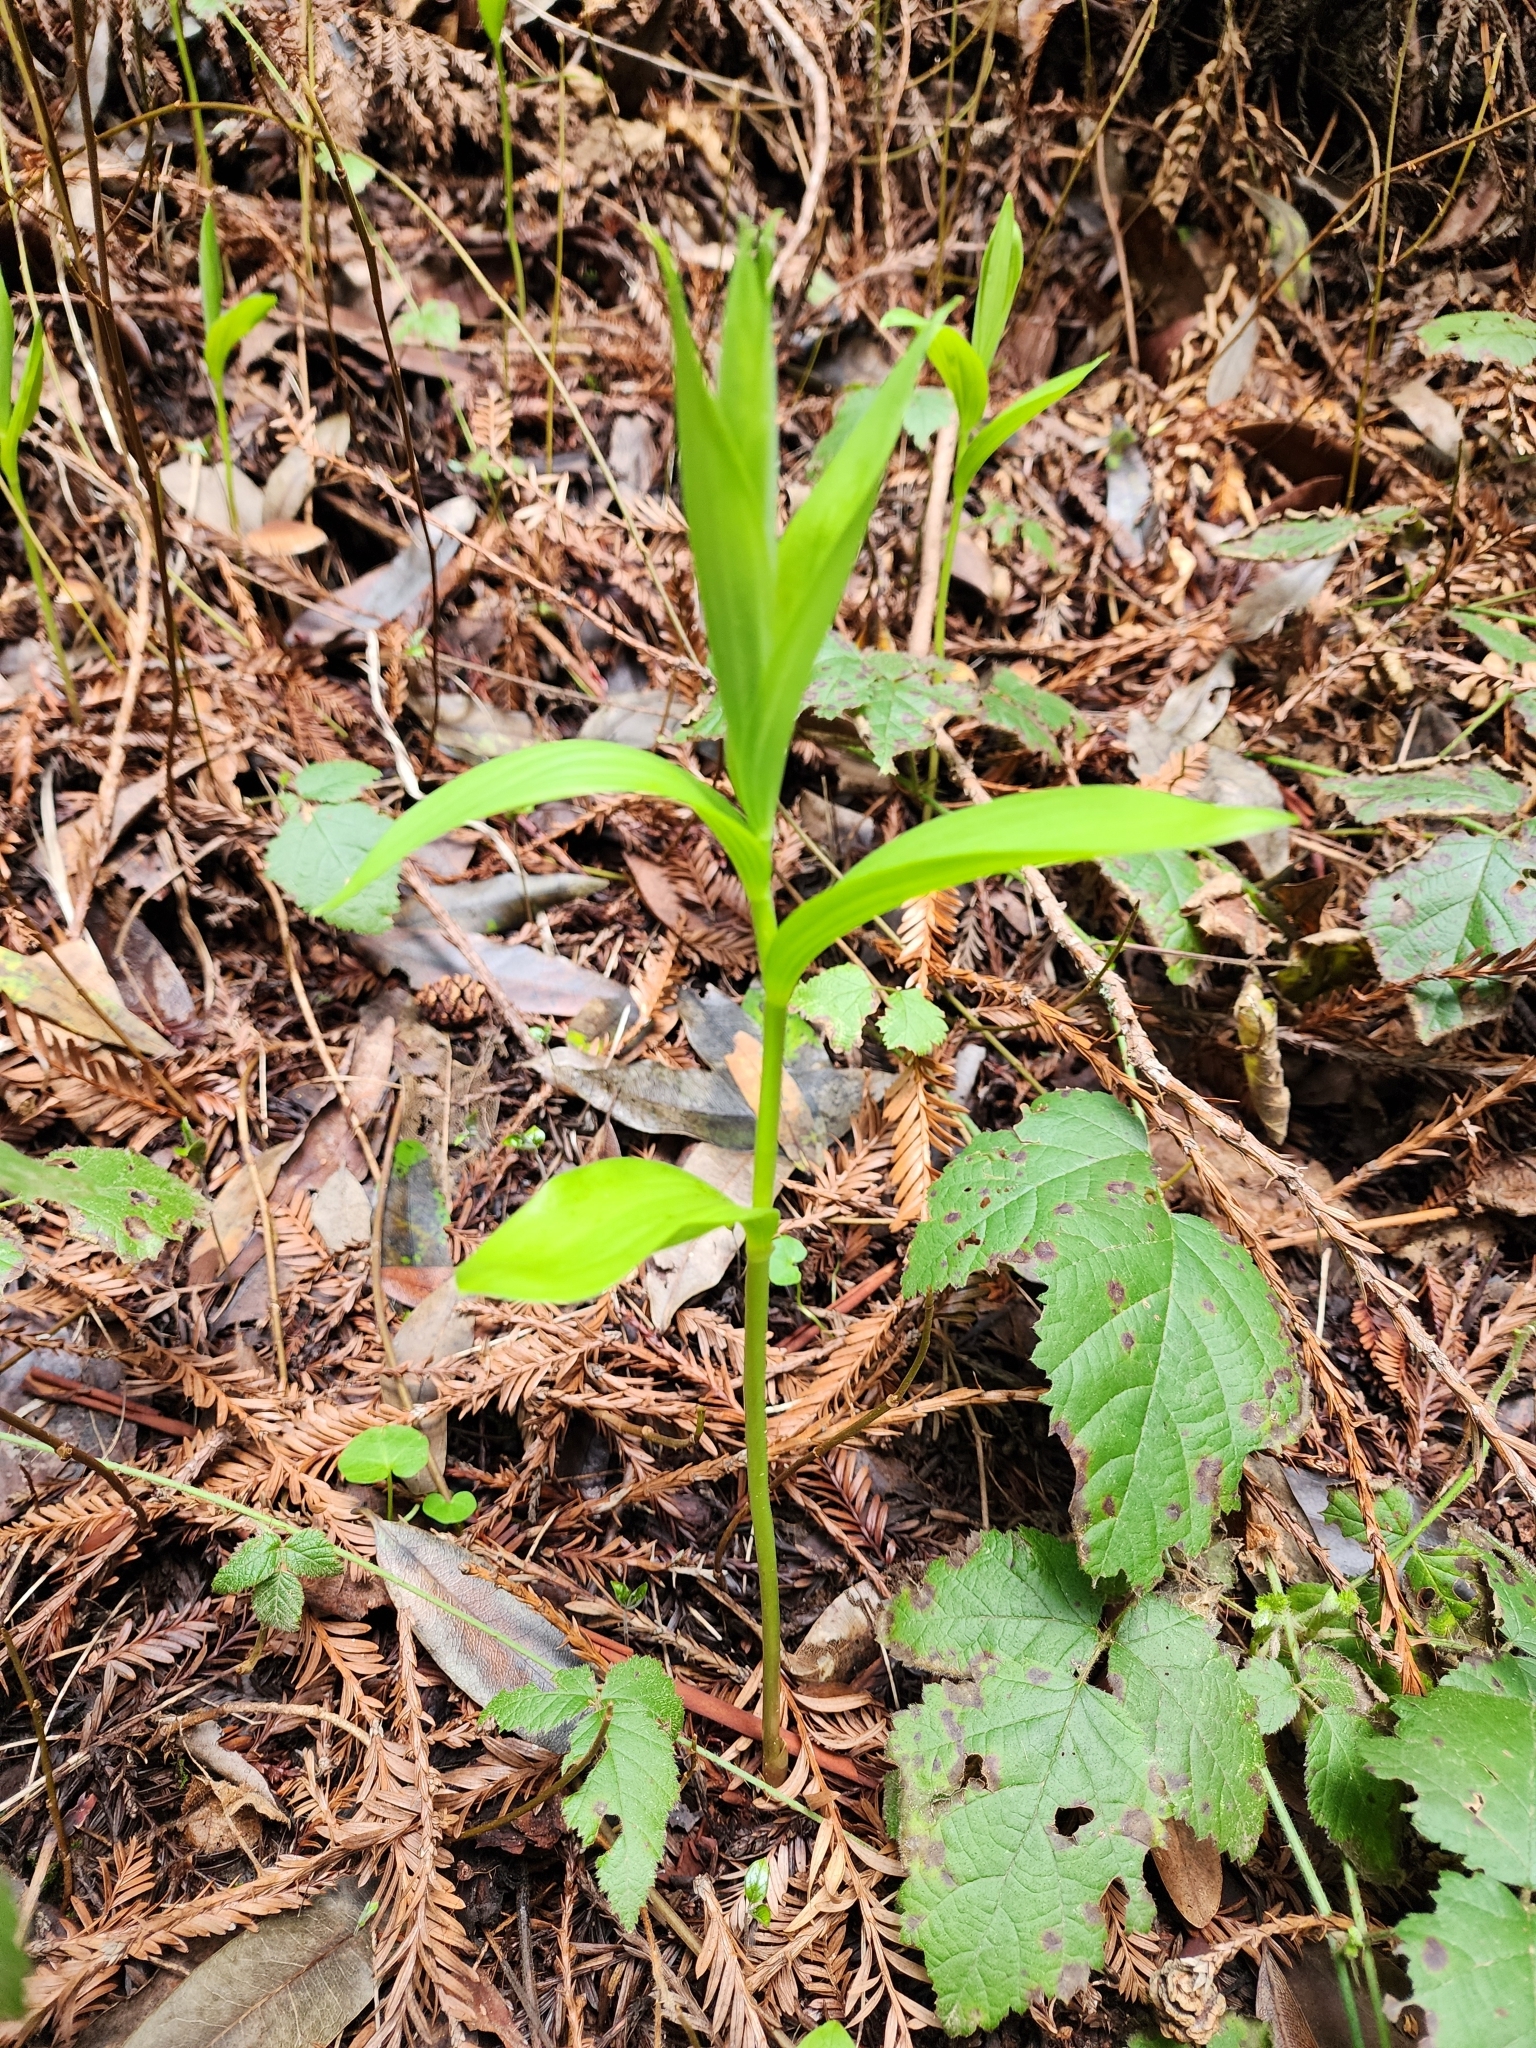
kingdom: Plantae
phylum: Tracheophyta
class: Liliopsida
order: Asparagales
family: Asparagaceae
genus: Maianthemum
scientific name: Maianthemum racemosum
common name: False spikenard
